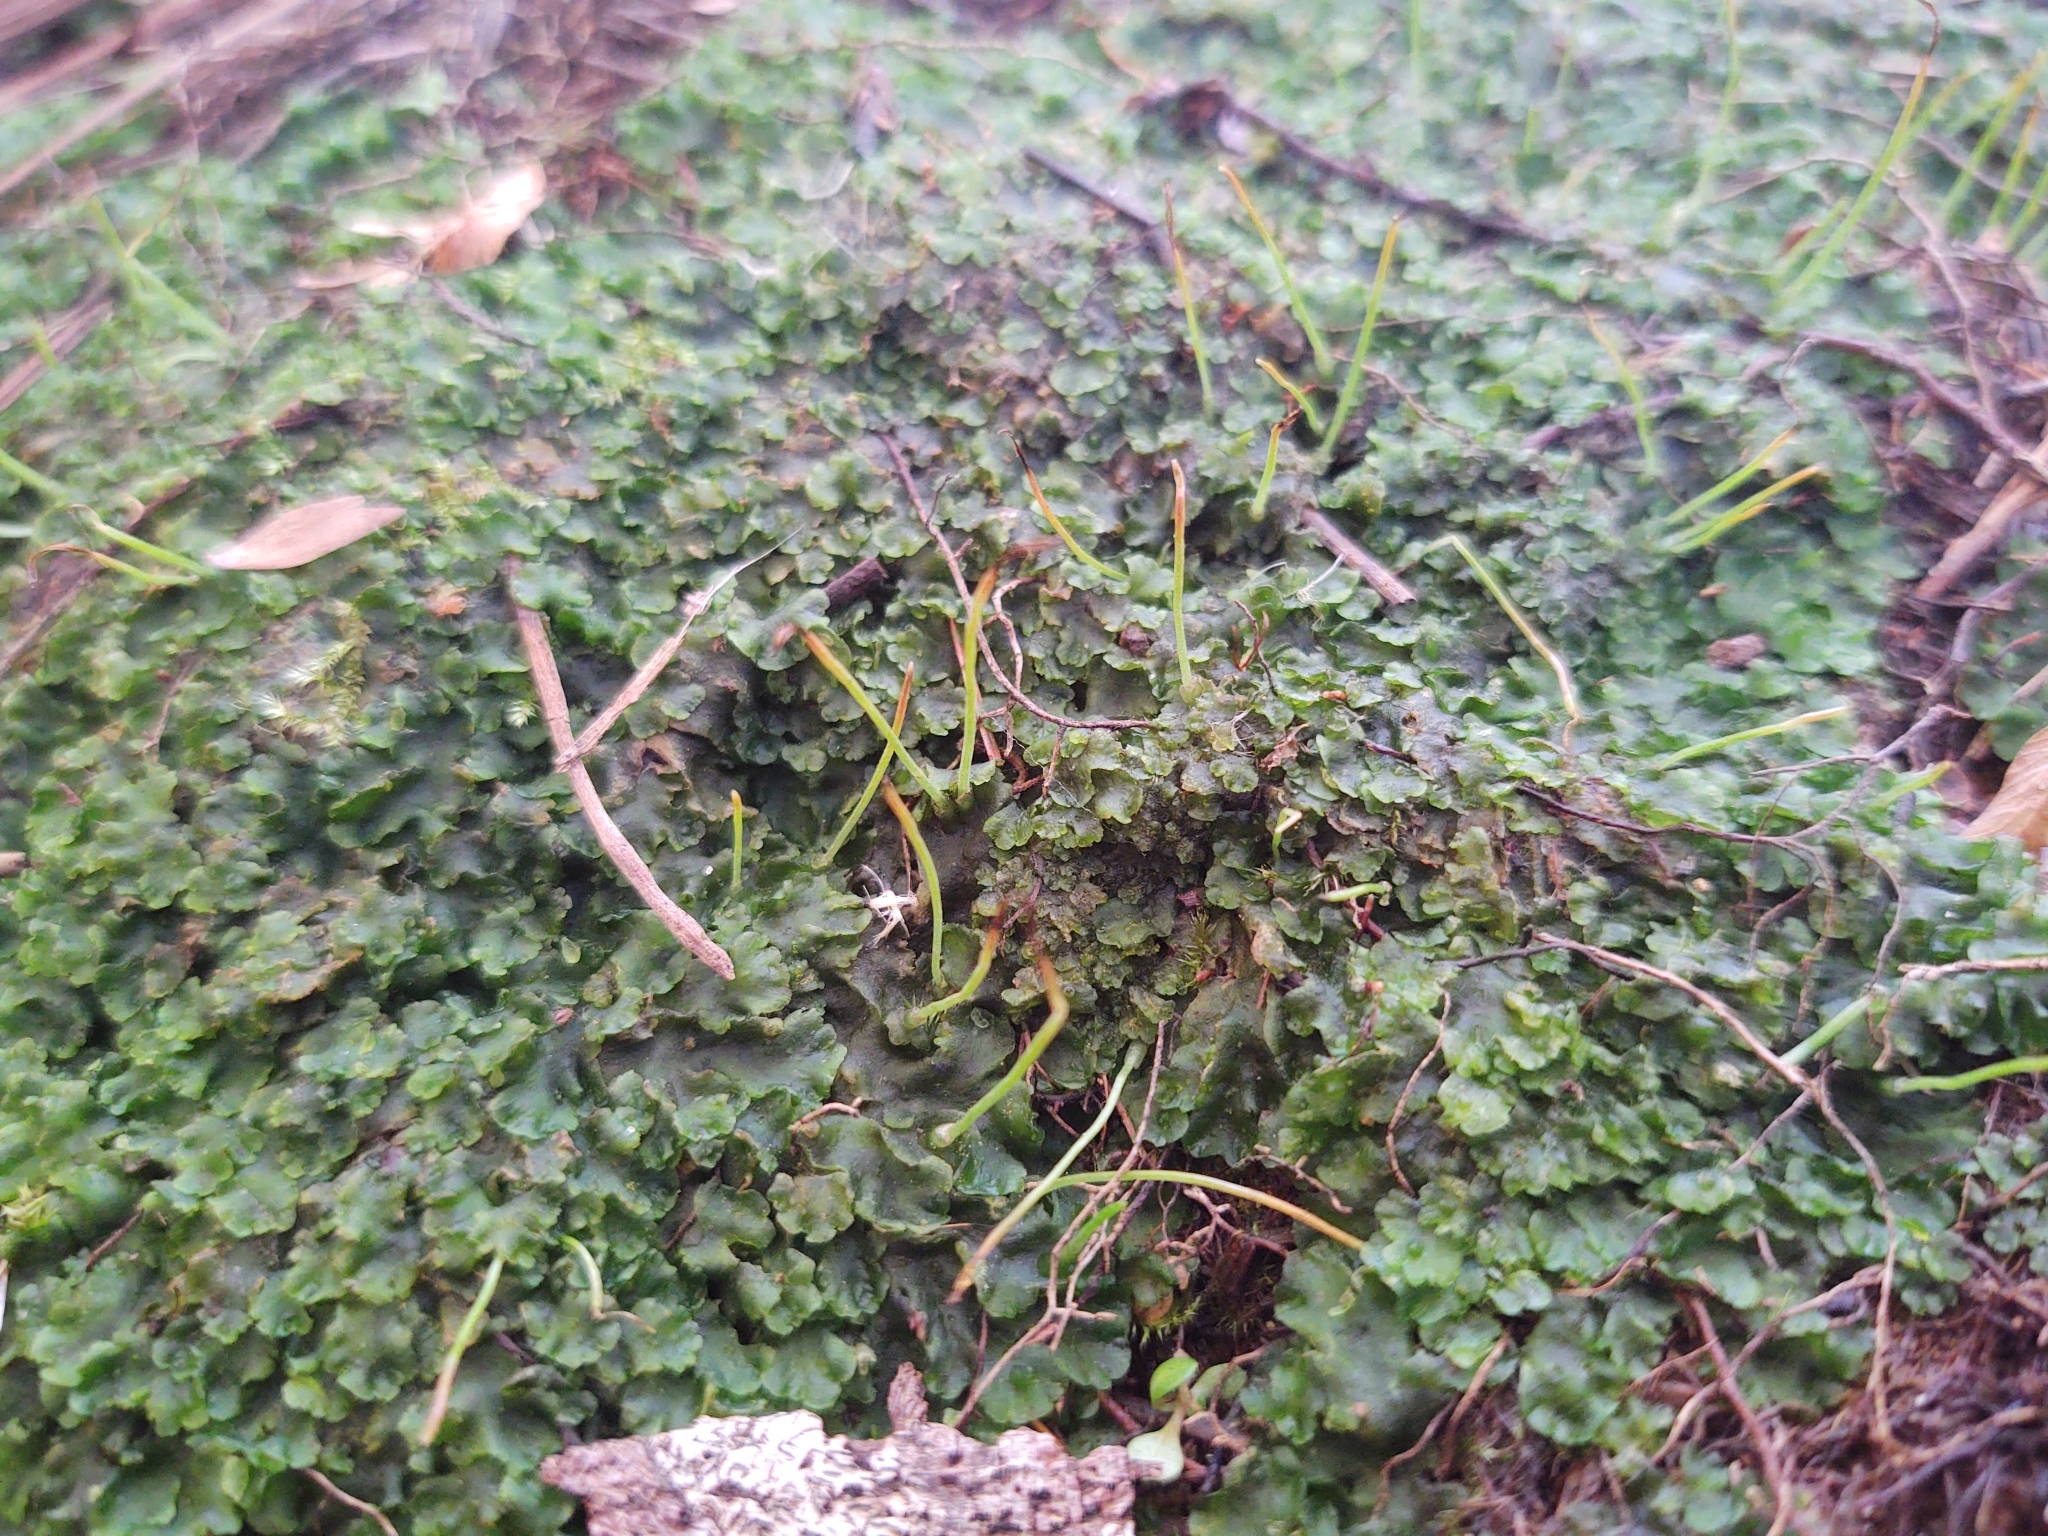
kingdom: Plantae
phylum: Anthocerotophyta
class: Anthocerotopsida
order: Notothyladales
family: Notothyladaceae
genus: Phaeoceros
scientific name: Phaeoceros carolinianus
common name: Carolina hornwort
